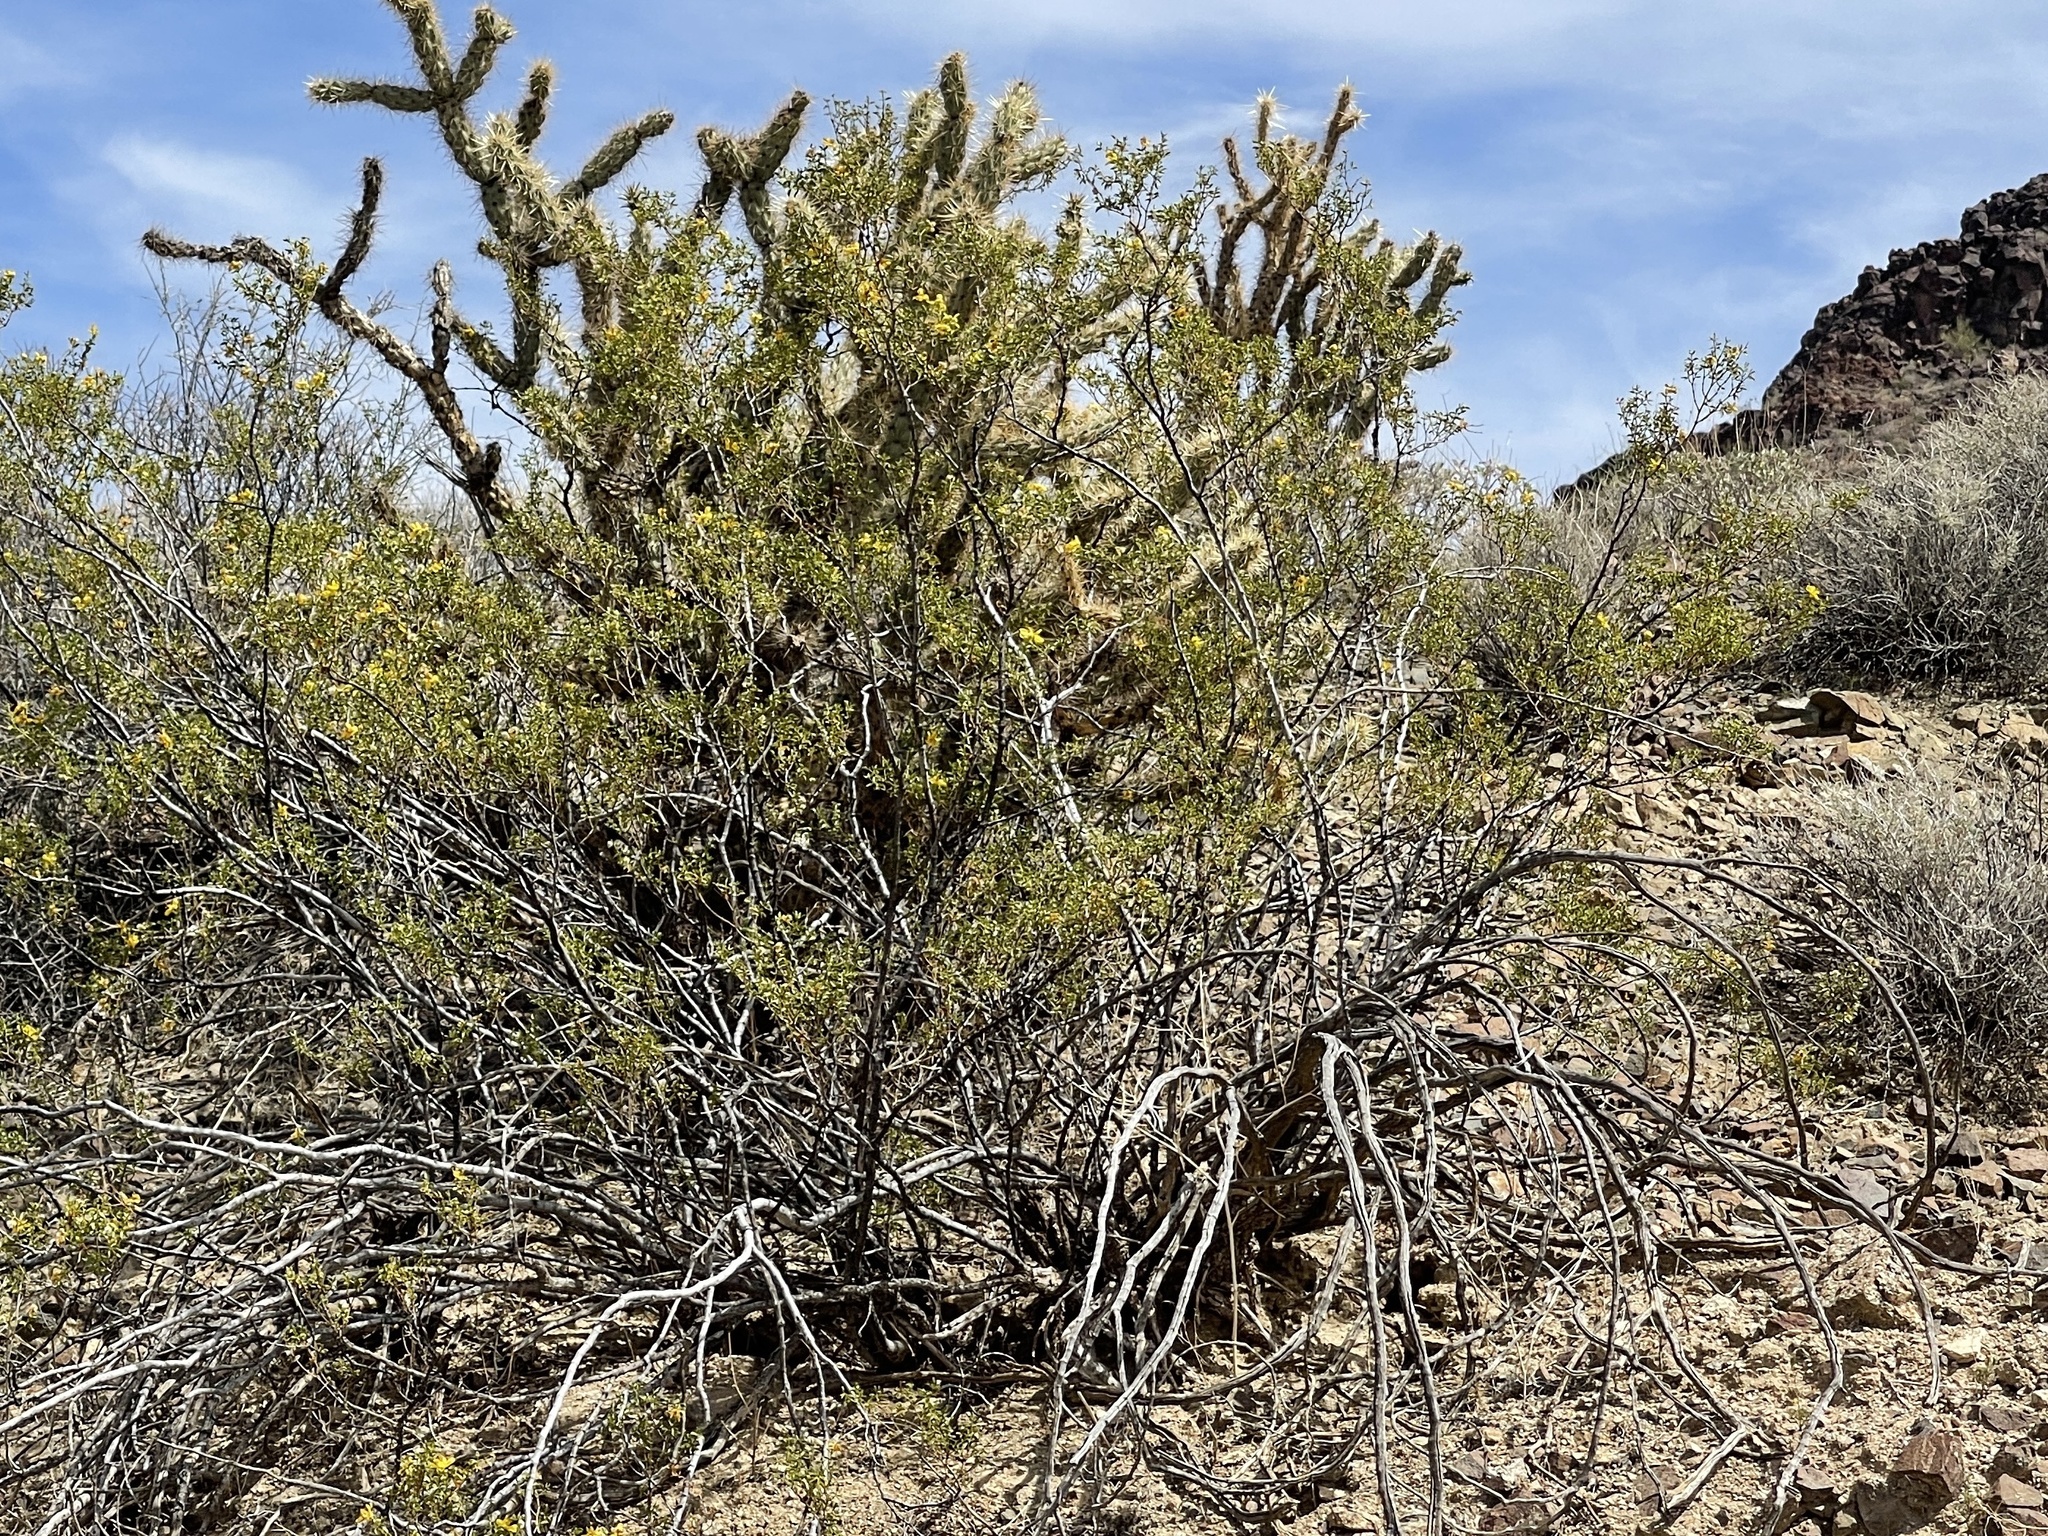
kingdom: Plantae
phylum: Tracheophyta
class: Magnoliopsida
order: Zygophyllales
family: Zygophyllaceae
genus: Larrea
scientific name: Larrea tridentata
